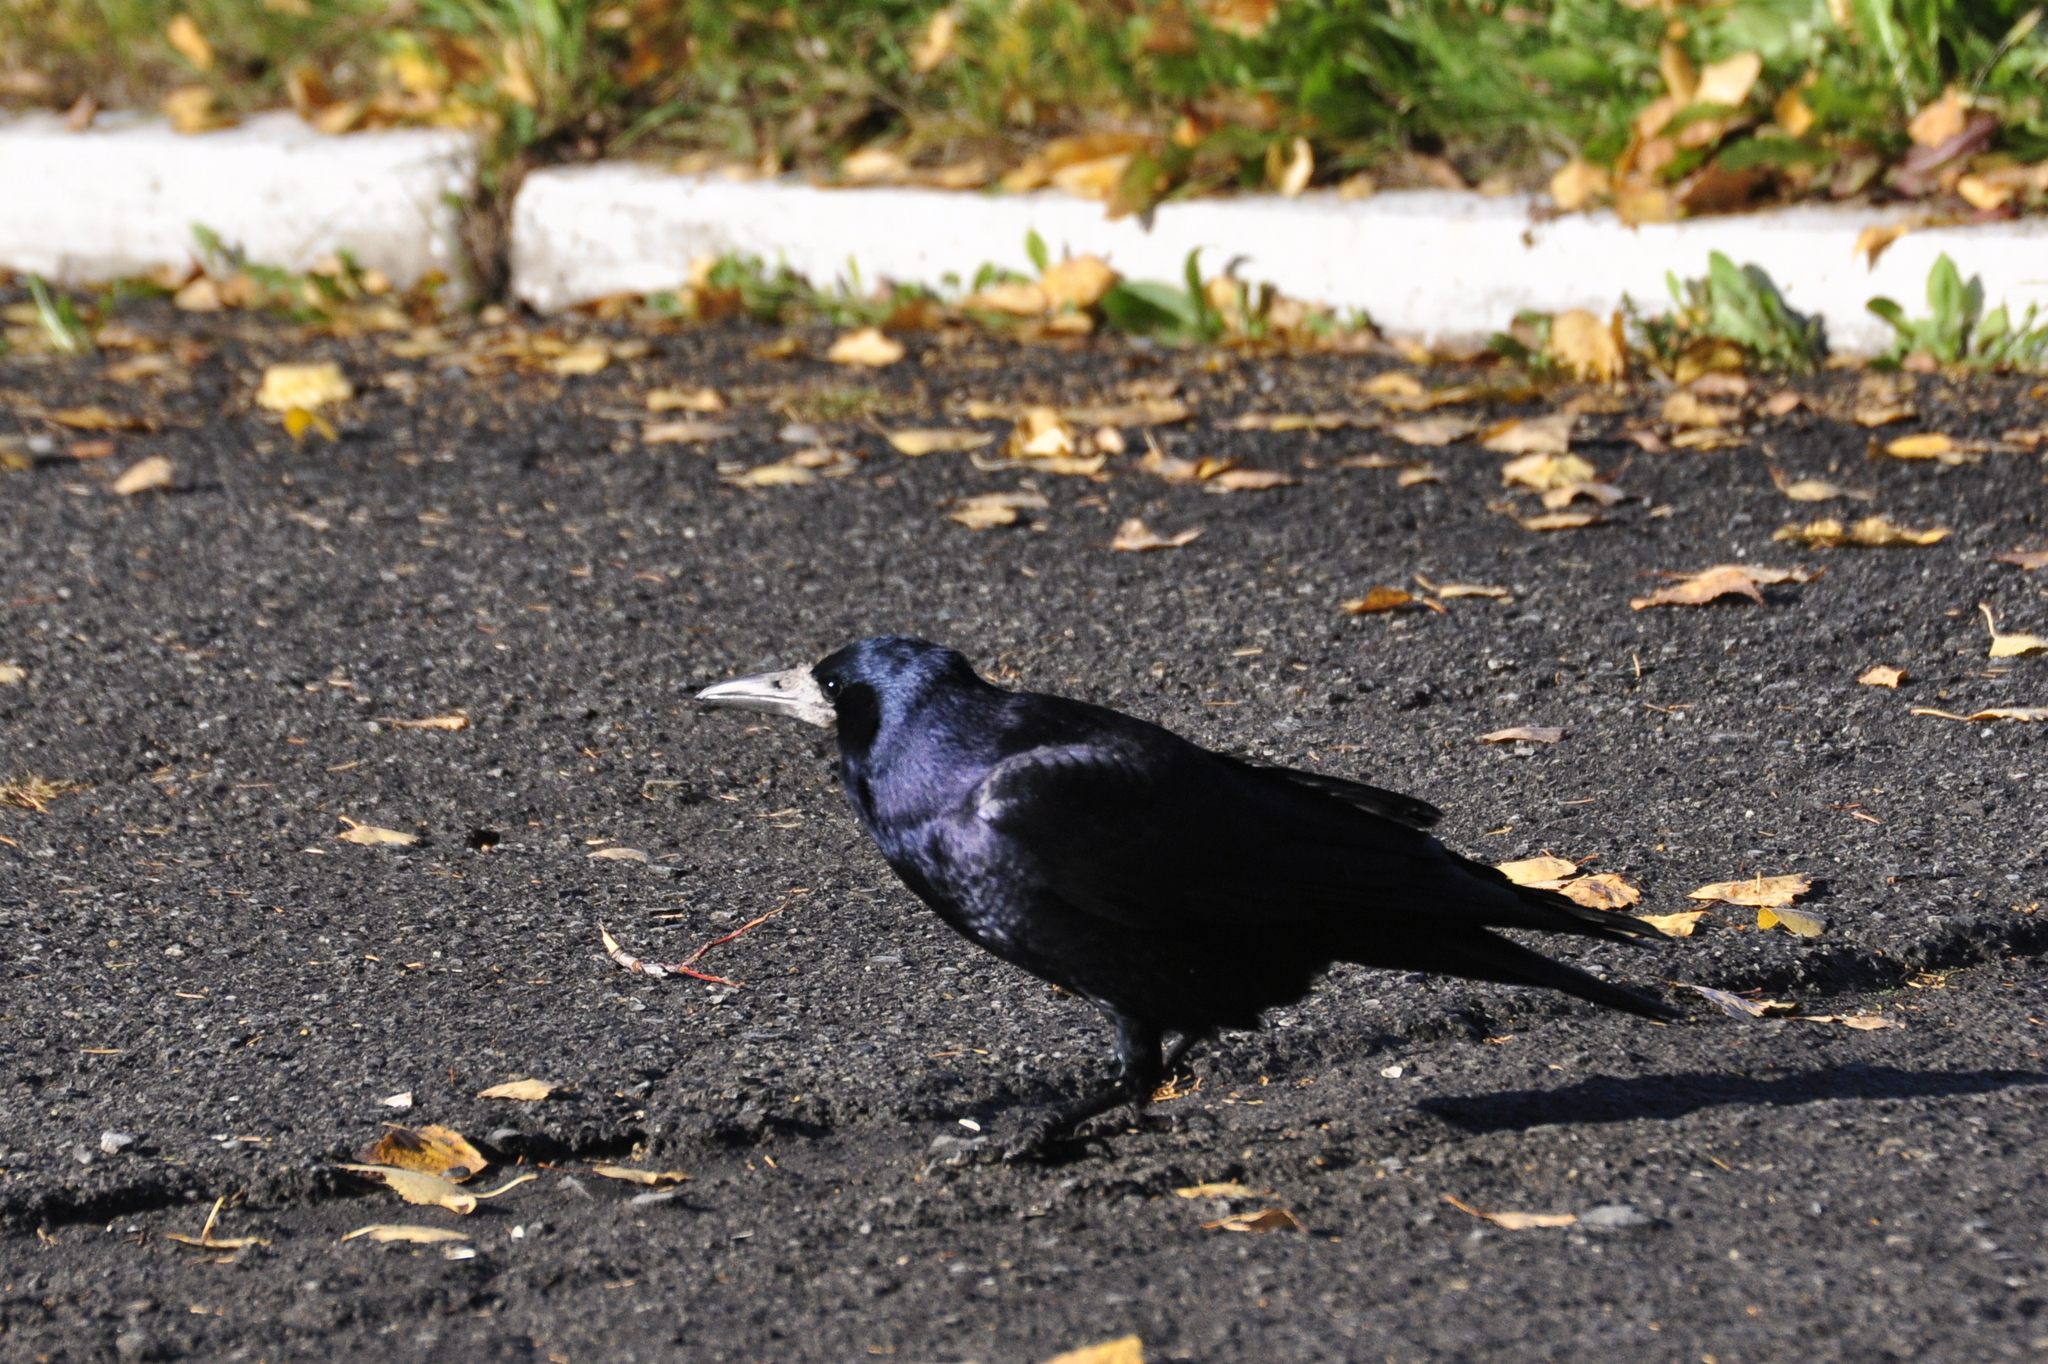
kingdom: Animalia
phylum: Chordata
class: Aves
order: Passeriformes
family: Corvidae
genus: Corvus
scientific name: Corvus frugilegus
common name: Rook
